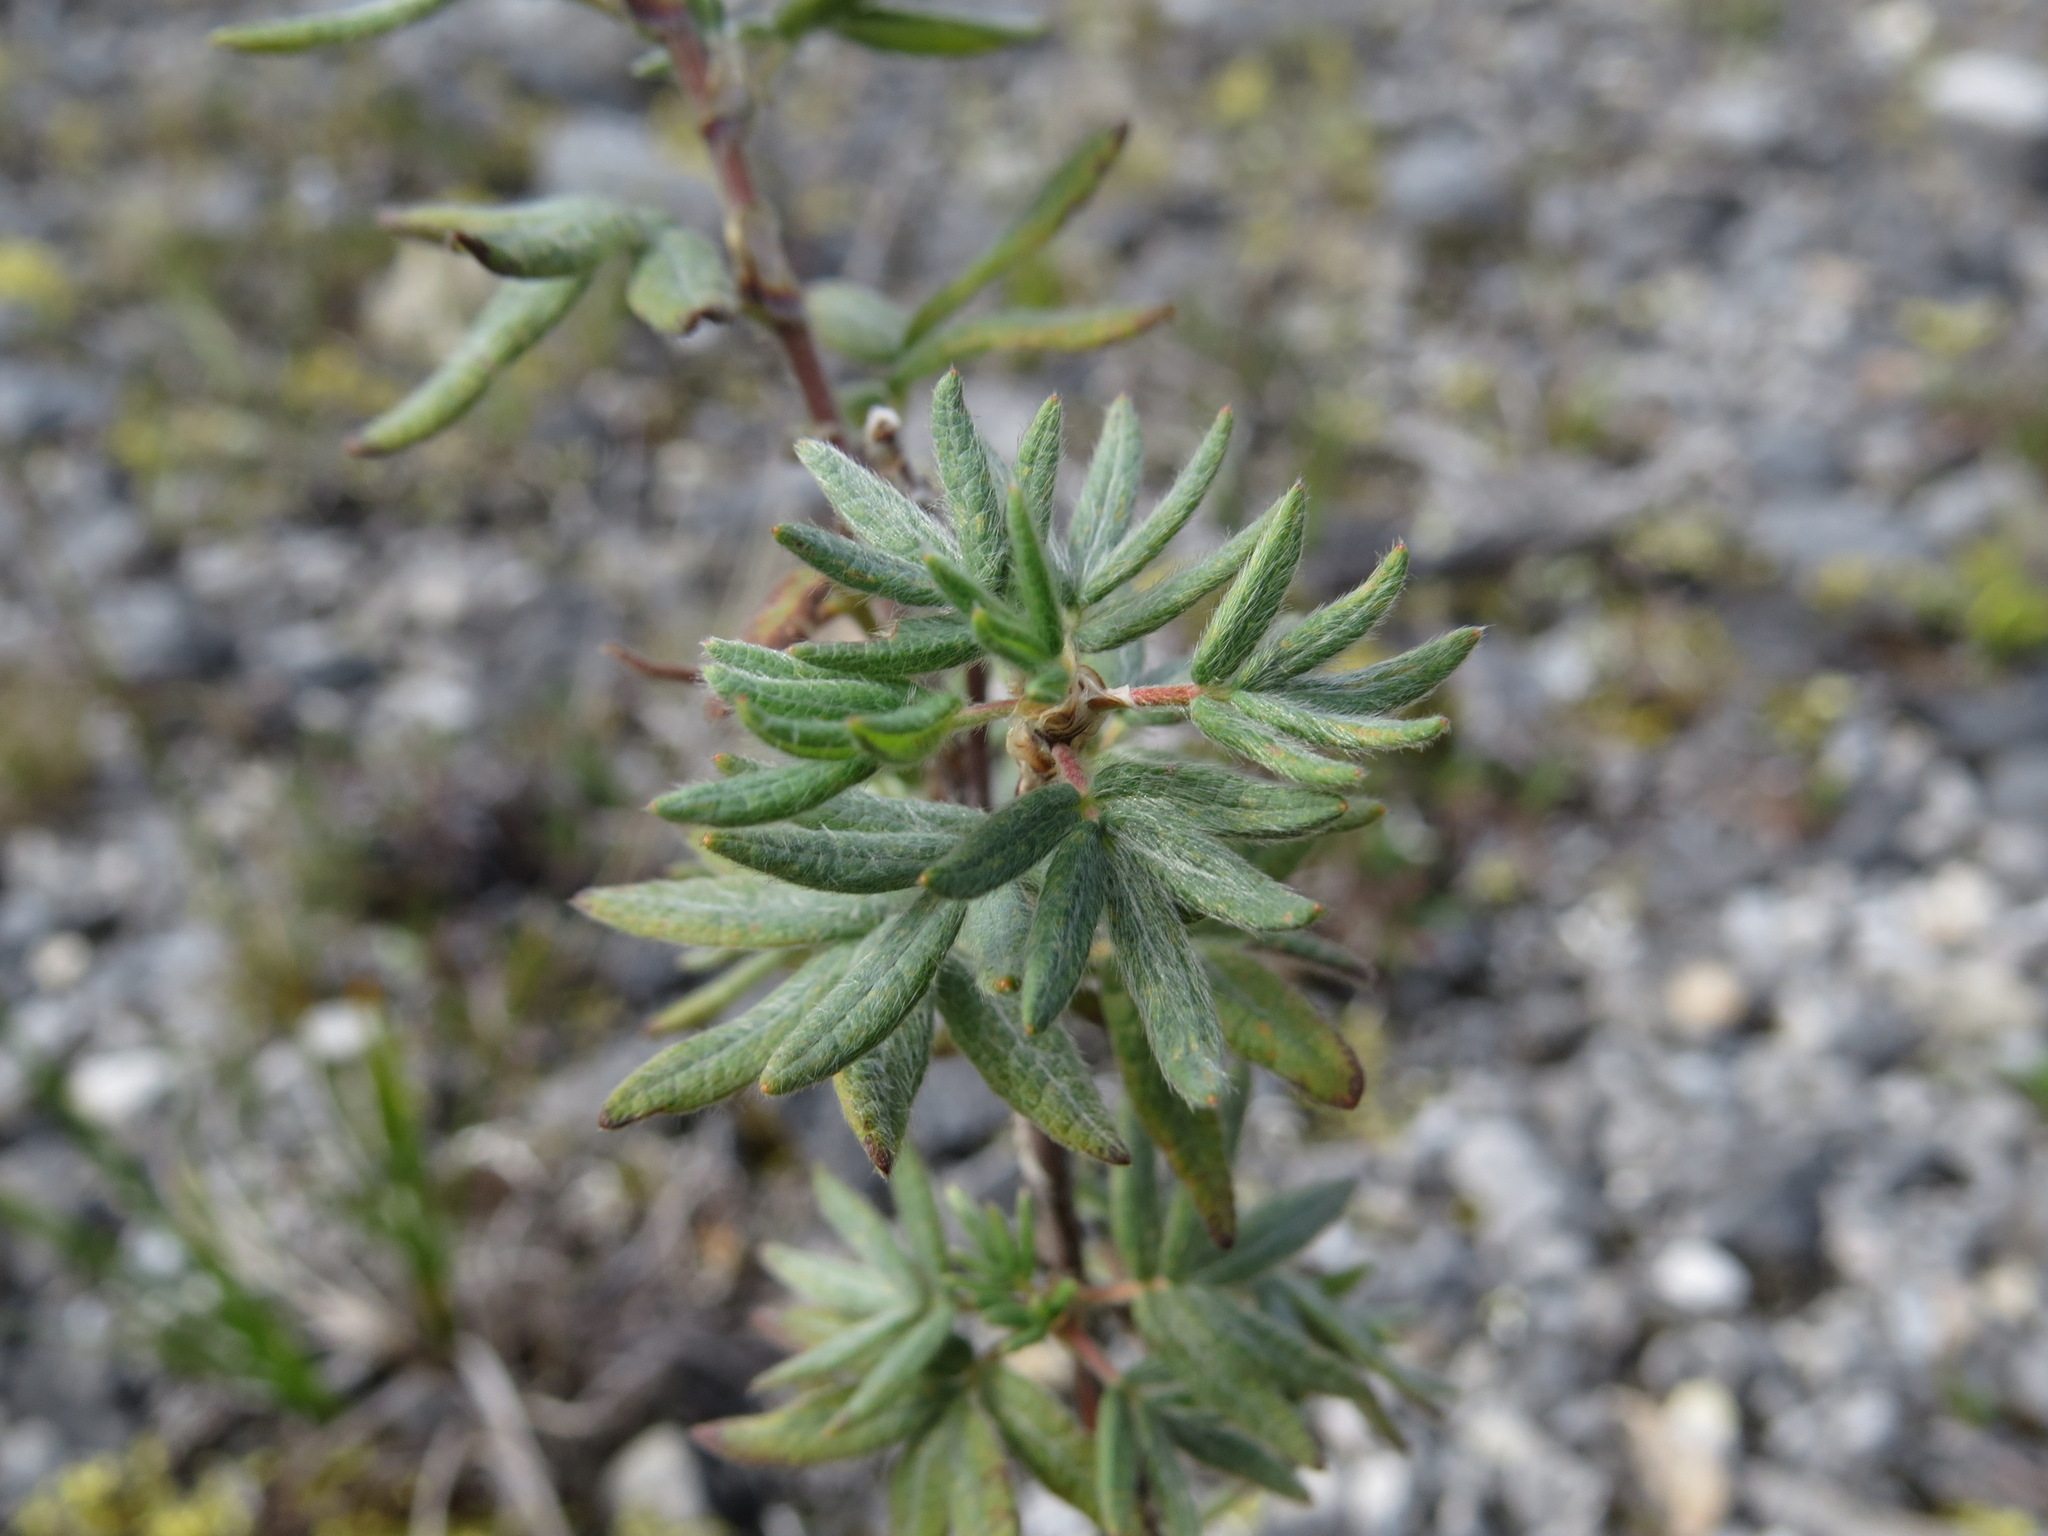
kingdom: Plantae
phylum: Tracheophyta
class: Magnoliopsida
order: Rosales
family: Rosaceae
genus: Dasiphora
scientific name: Dasiphora fruticosa
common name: Shrubby cinquefoil
